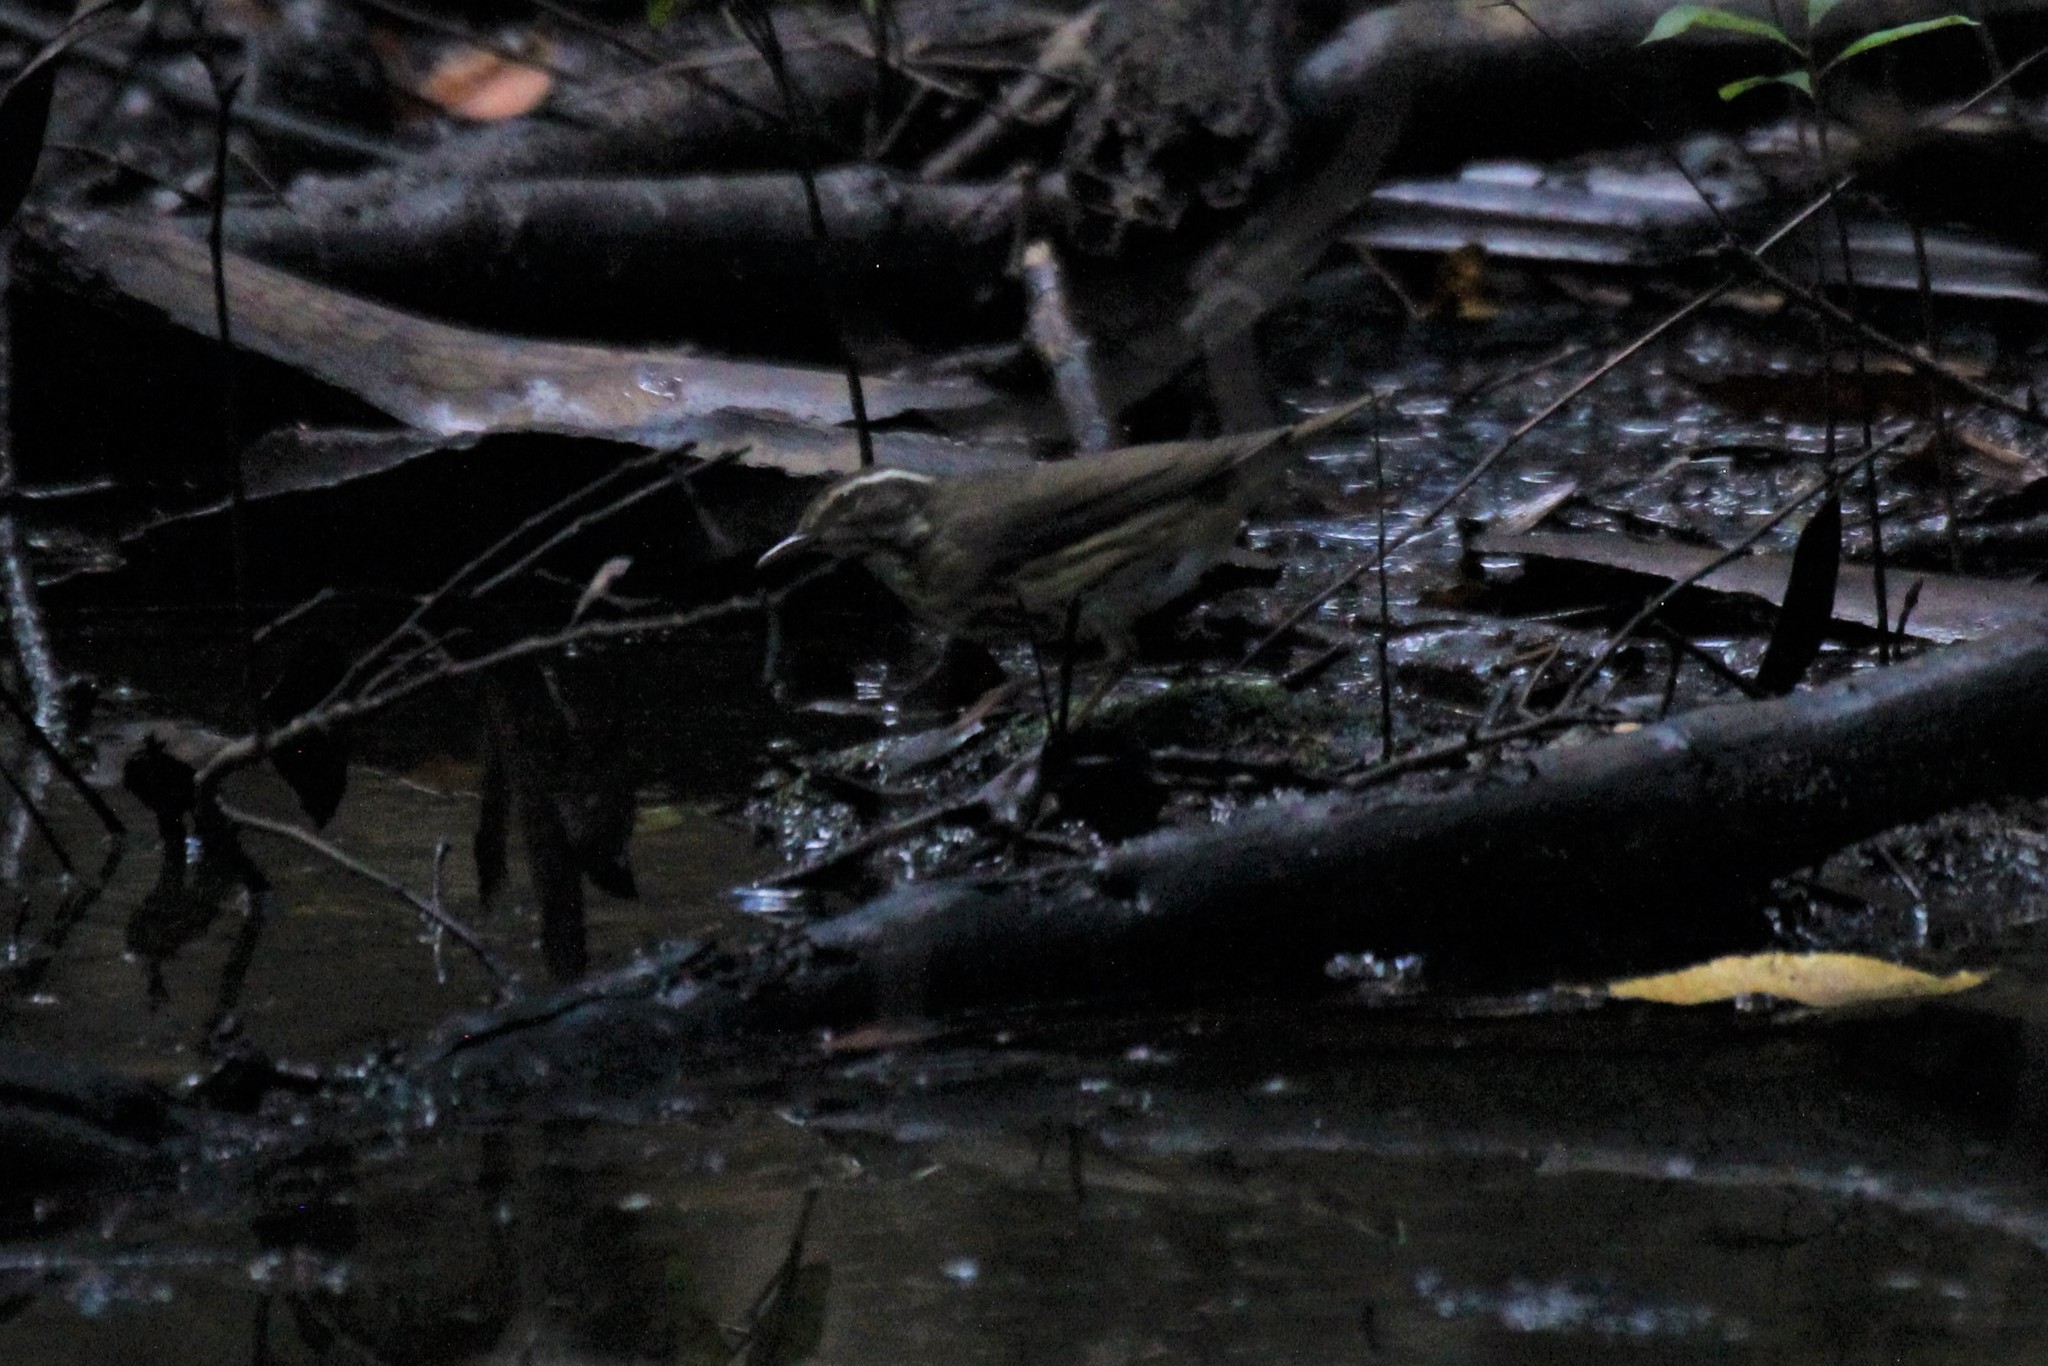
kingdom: Animalia
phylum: Chordata
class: Aves
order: Passeriformes
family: Parulidae
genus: Parkesia
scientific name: Parkesia motacilla
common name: Louisiana waterthrush
